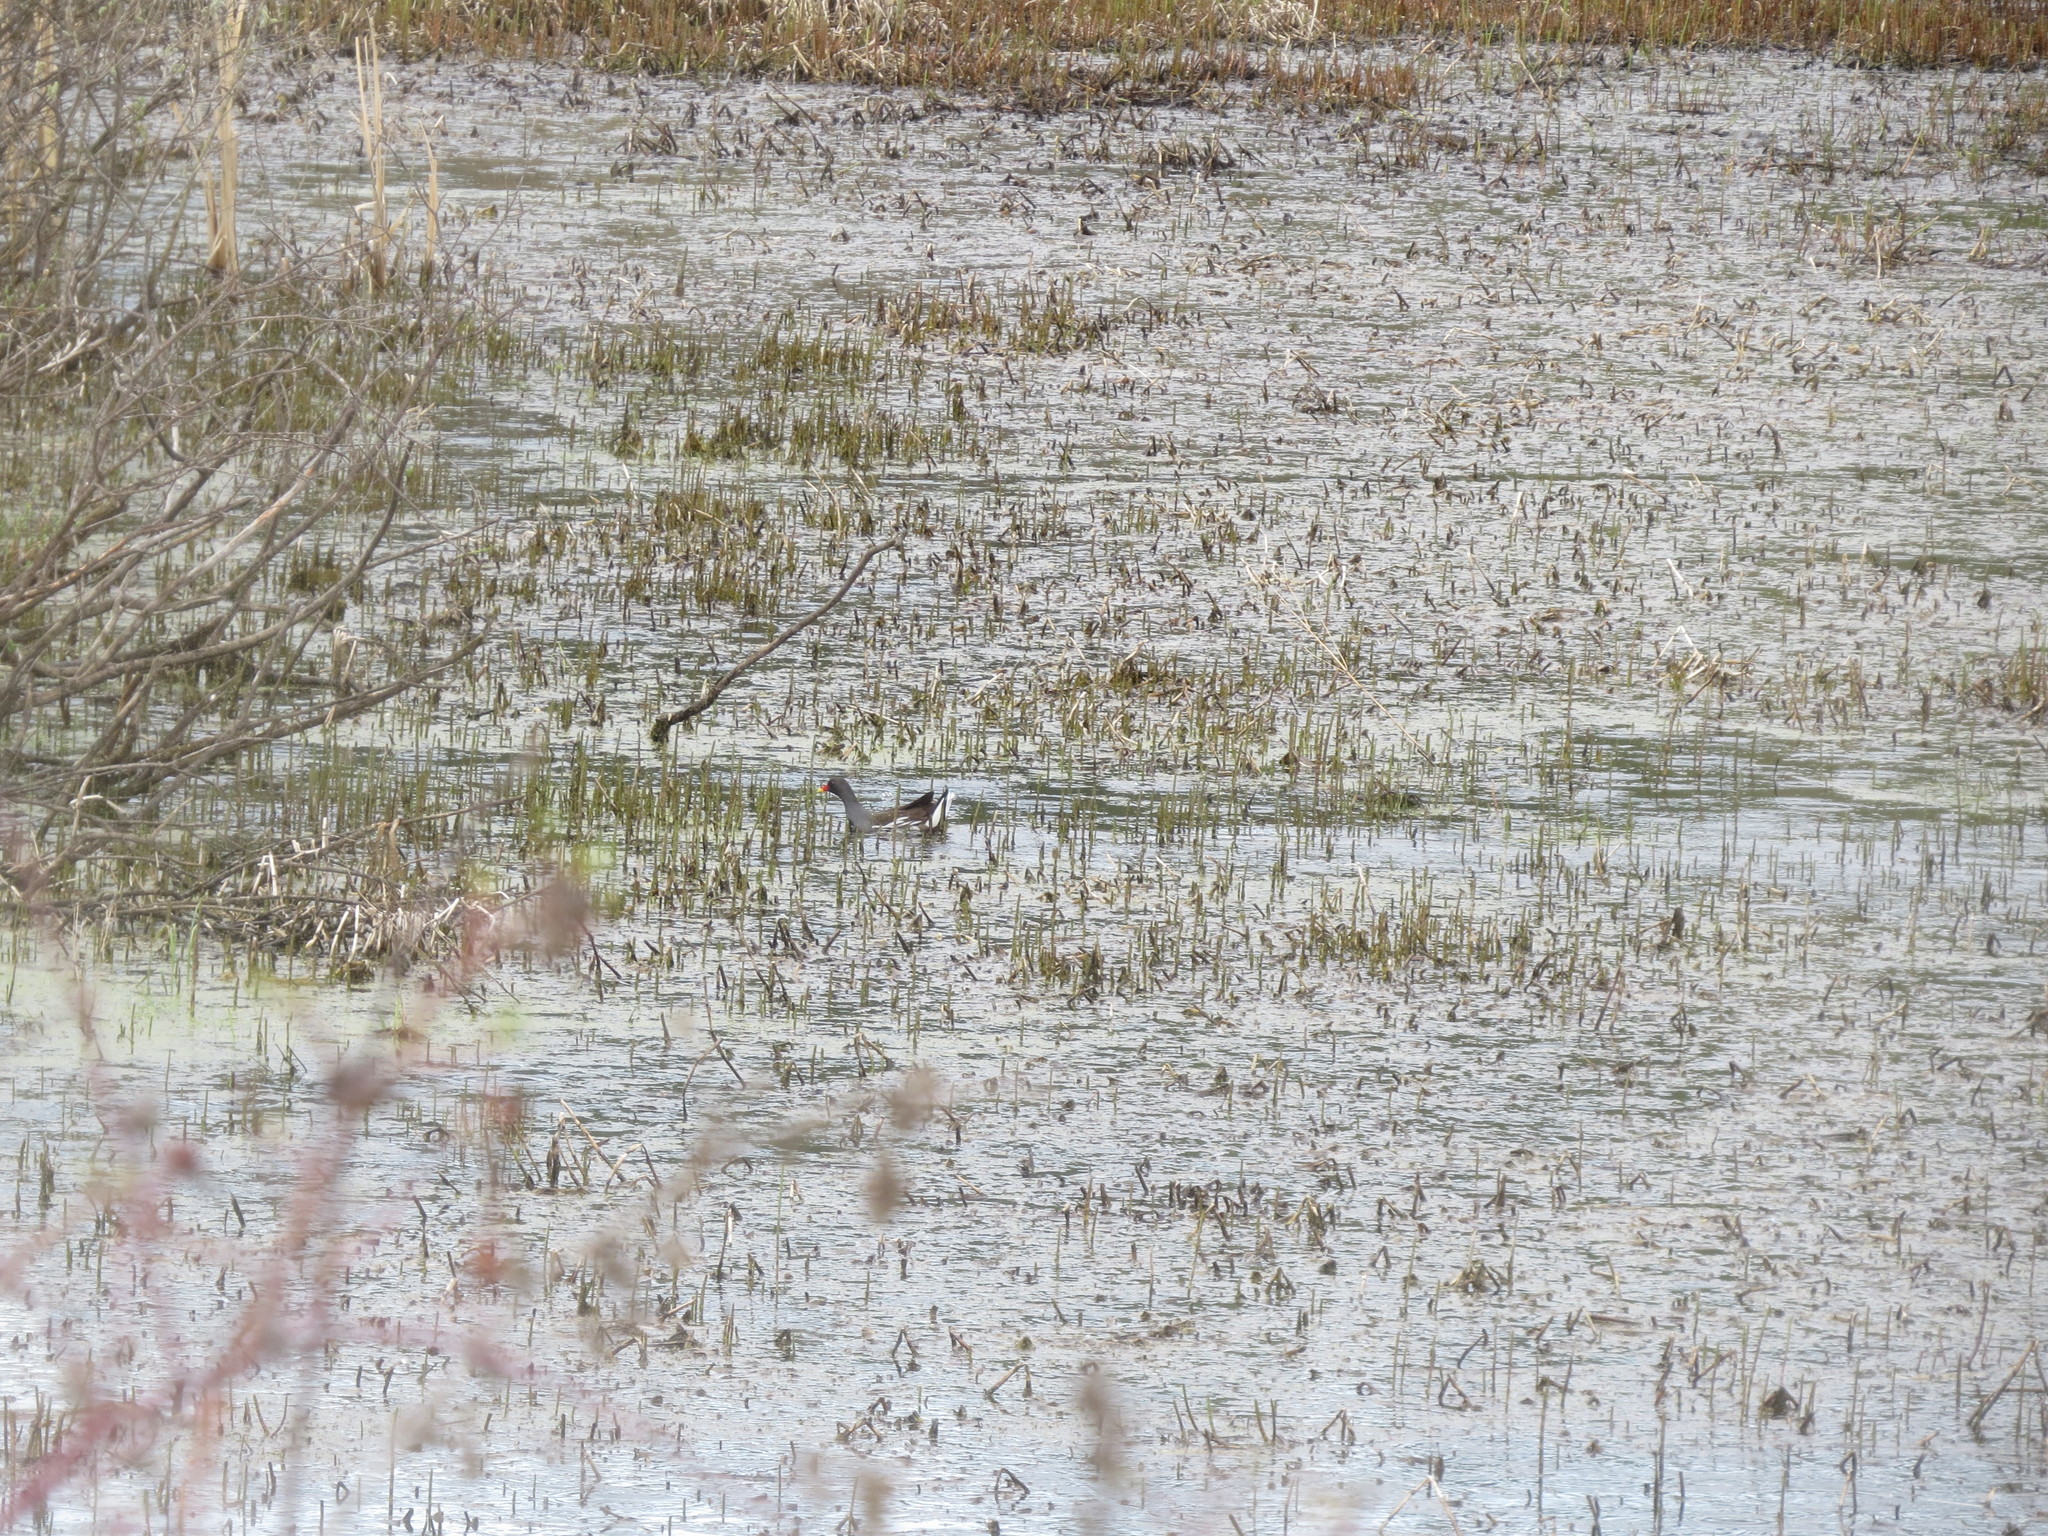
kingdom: Animalia
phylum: Chordata
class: Aves
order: Gruiformes
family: Rallidae
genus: Gallinula
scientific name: Gallinula chloropus
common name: Common moorhen
